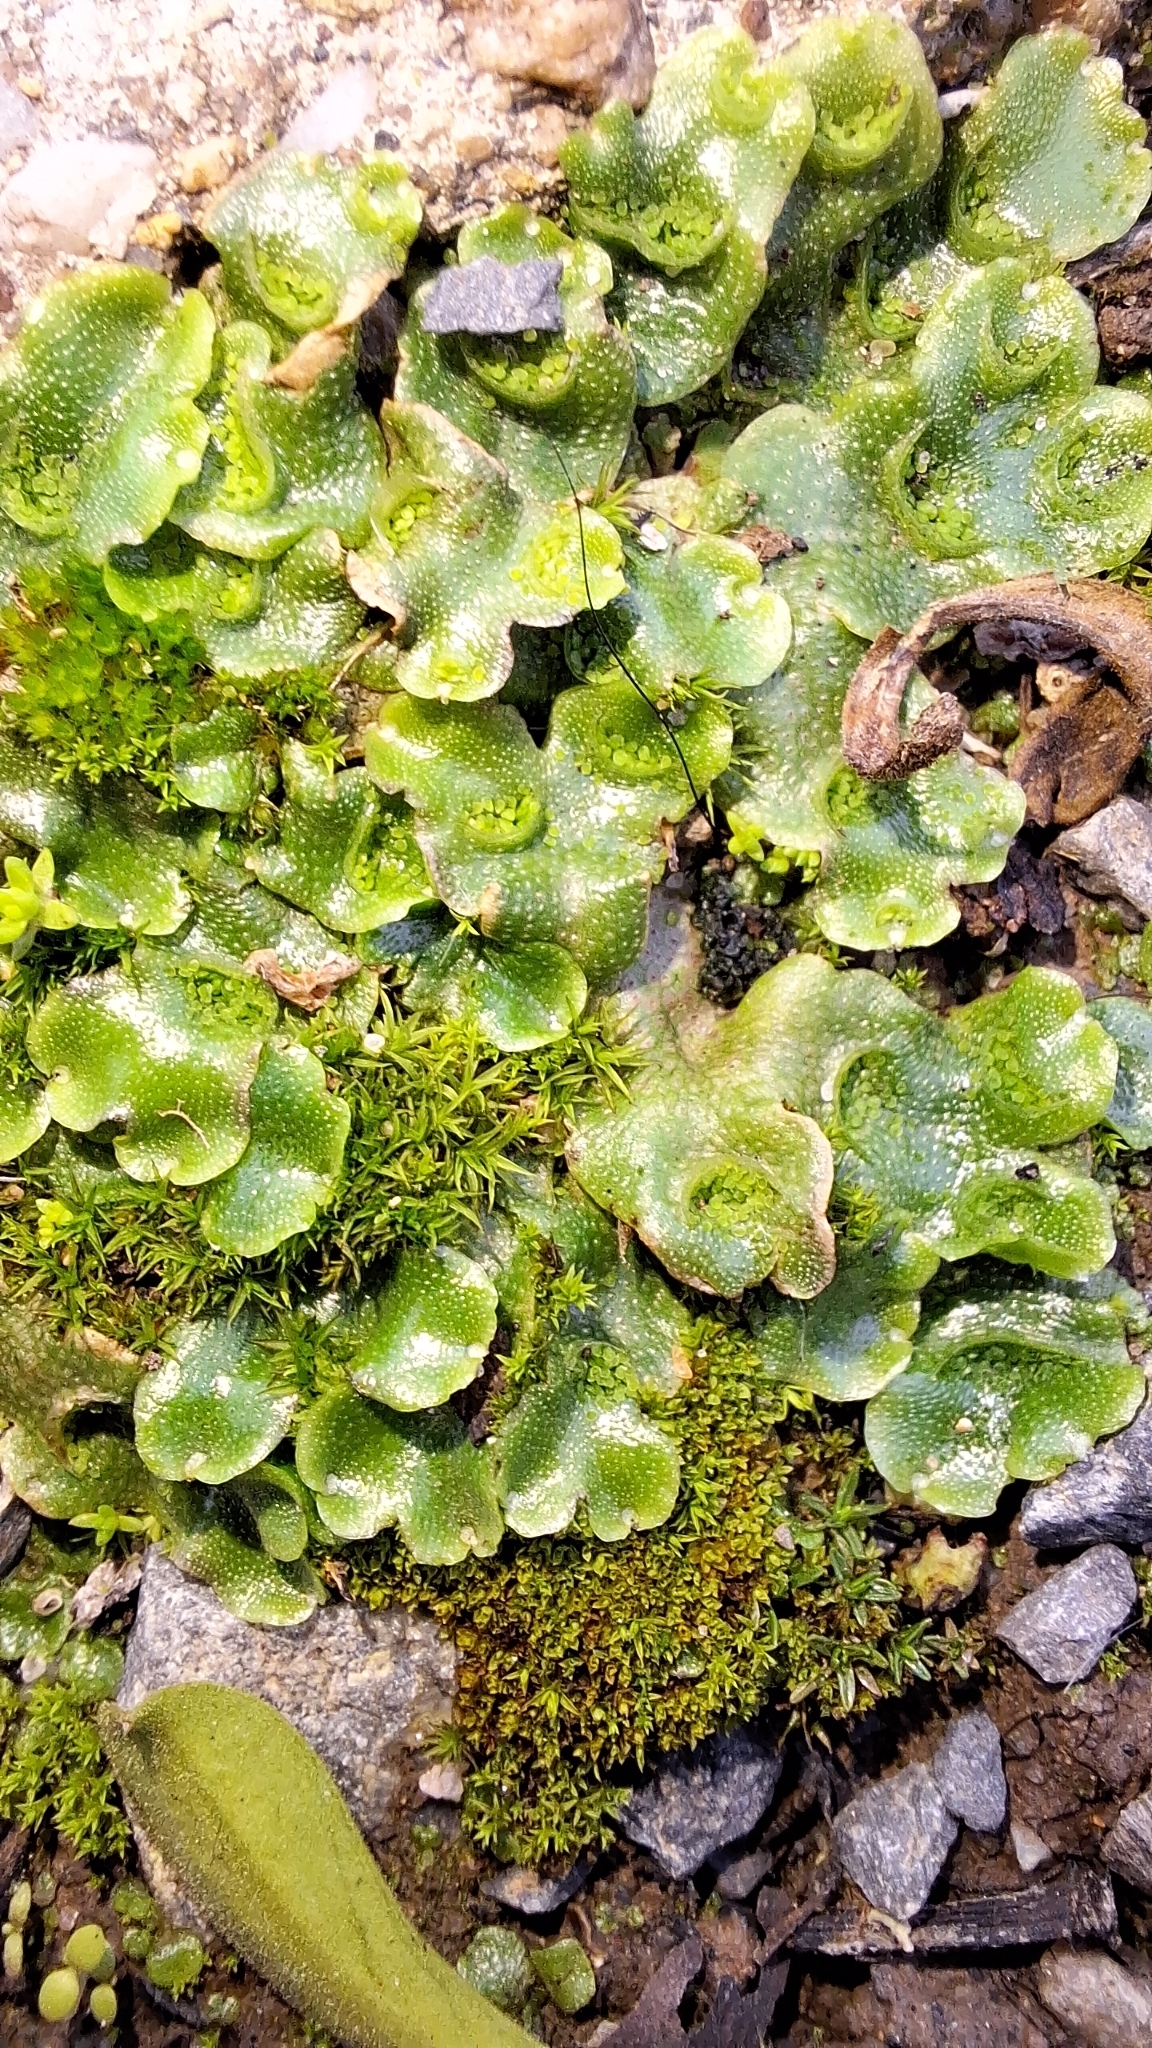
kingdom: Plantae
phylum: Marchantiophyta
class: Marchantiopsida
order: Lunulariales
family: Lunulariaceae
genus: Lunularia
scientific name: Lunularia cruciata
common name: Crescent-cup liverwort
